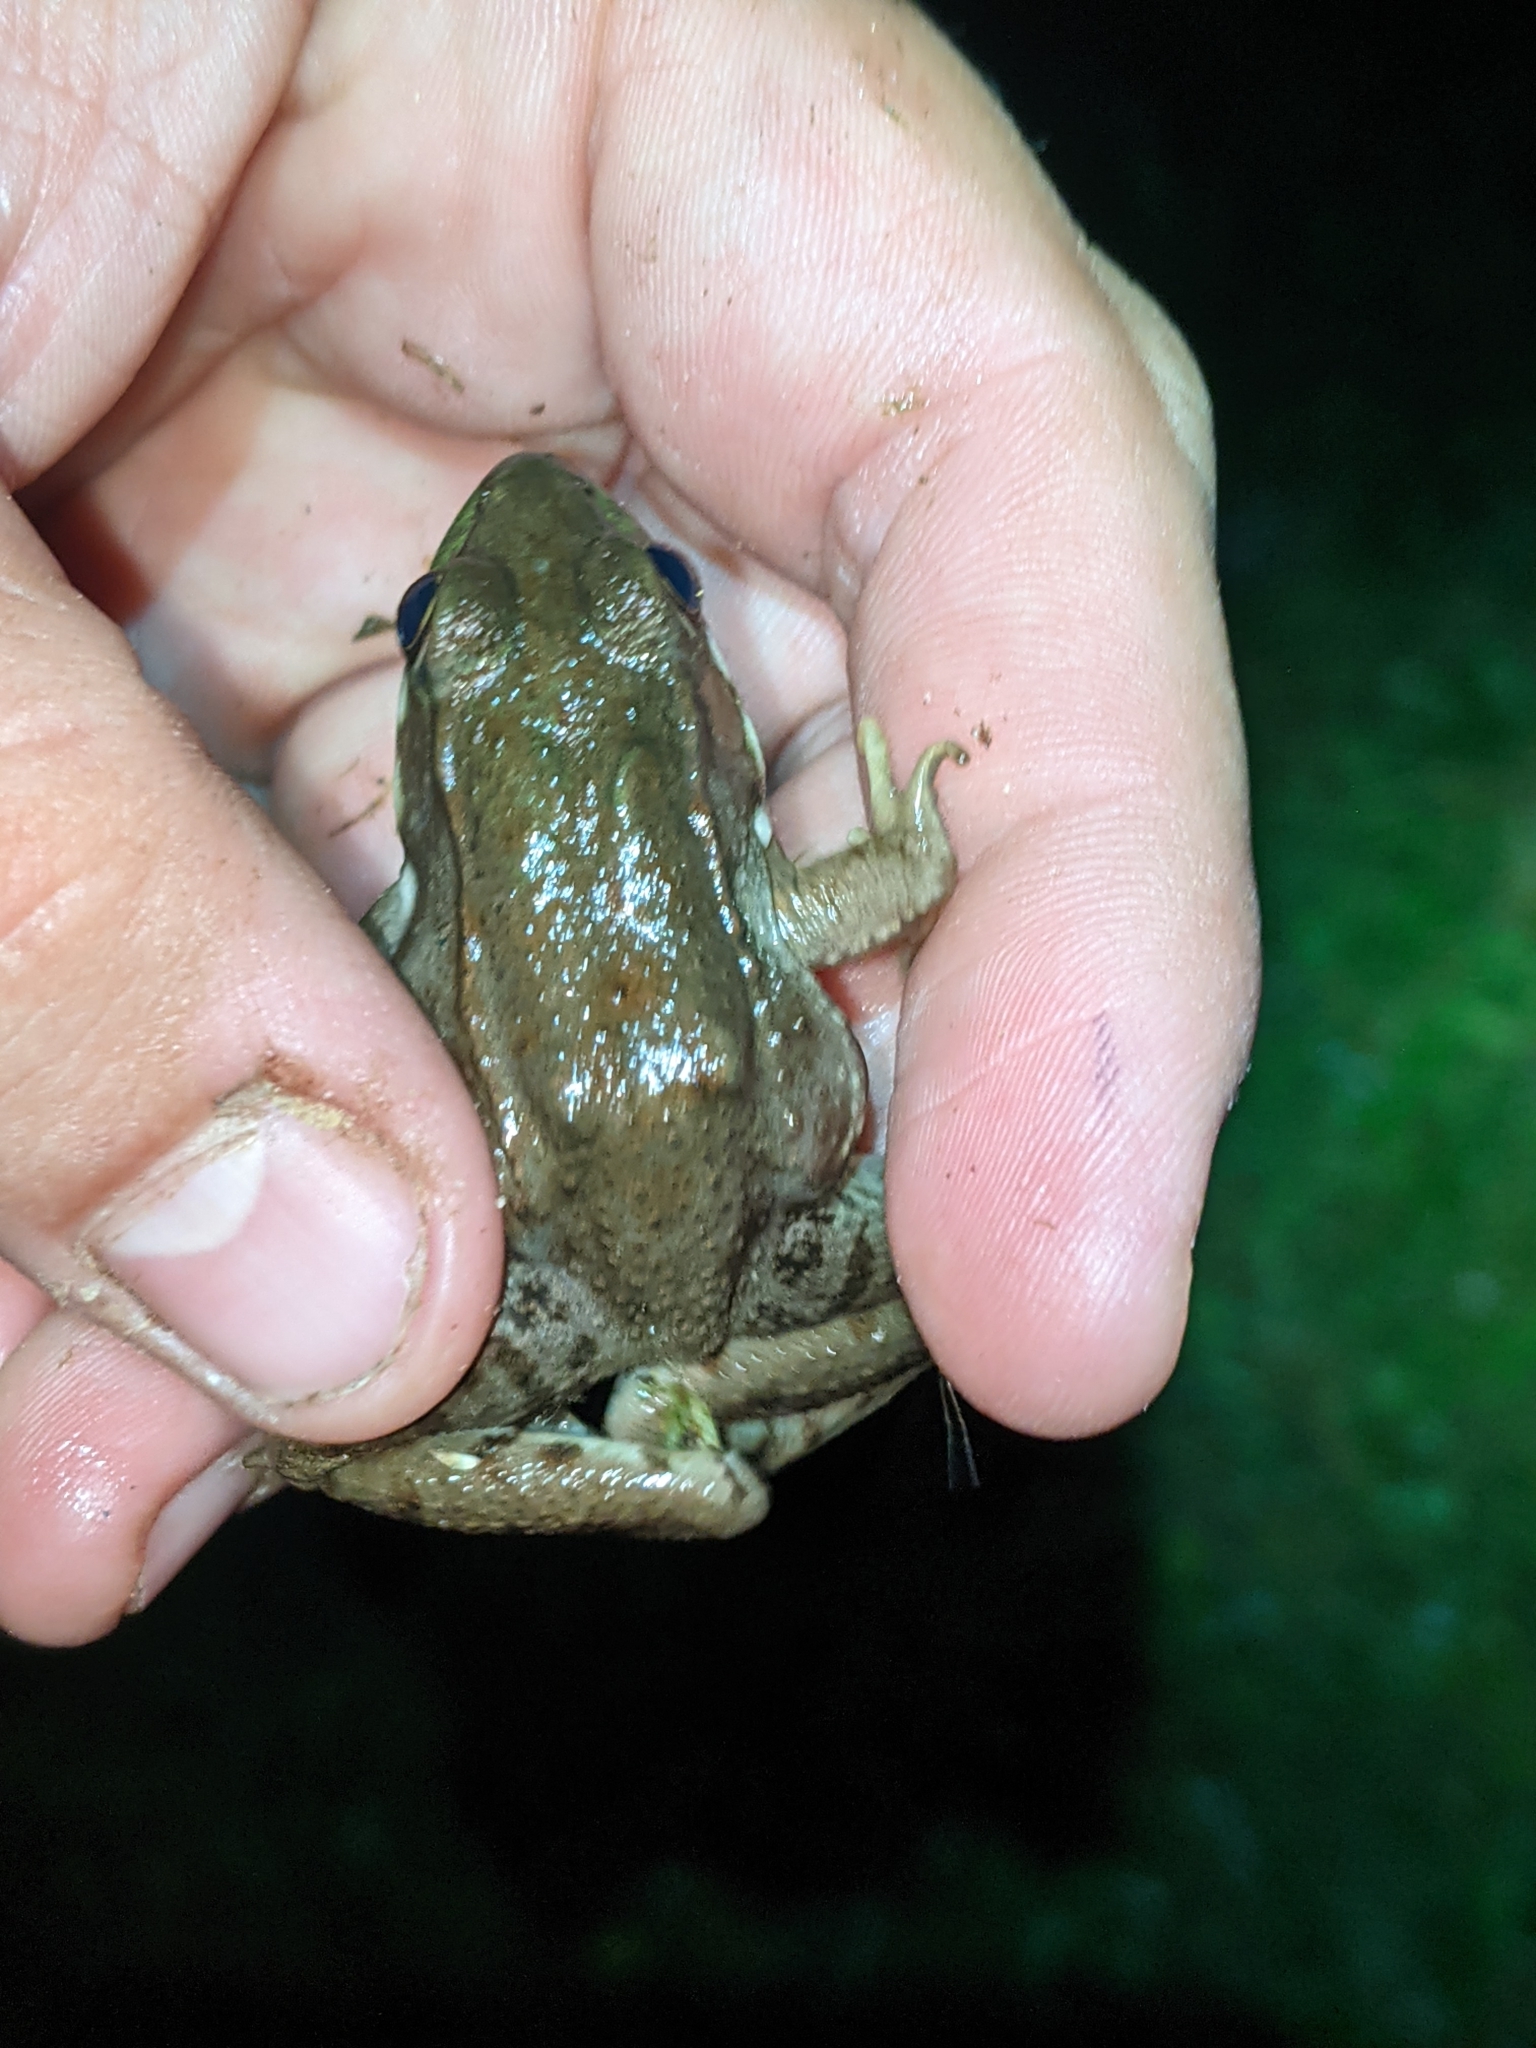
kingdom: Animalia
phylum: Chordata
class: Amphibia
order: Anura
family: Ranidae
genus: Lithobates
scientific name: Lithobates clamitans
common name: Green frog
